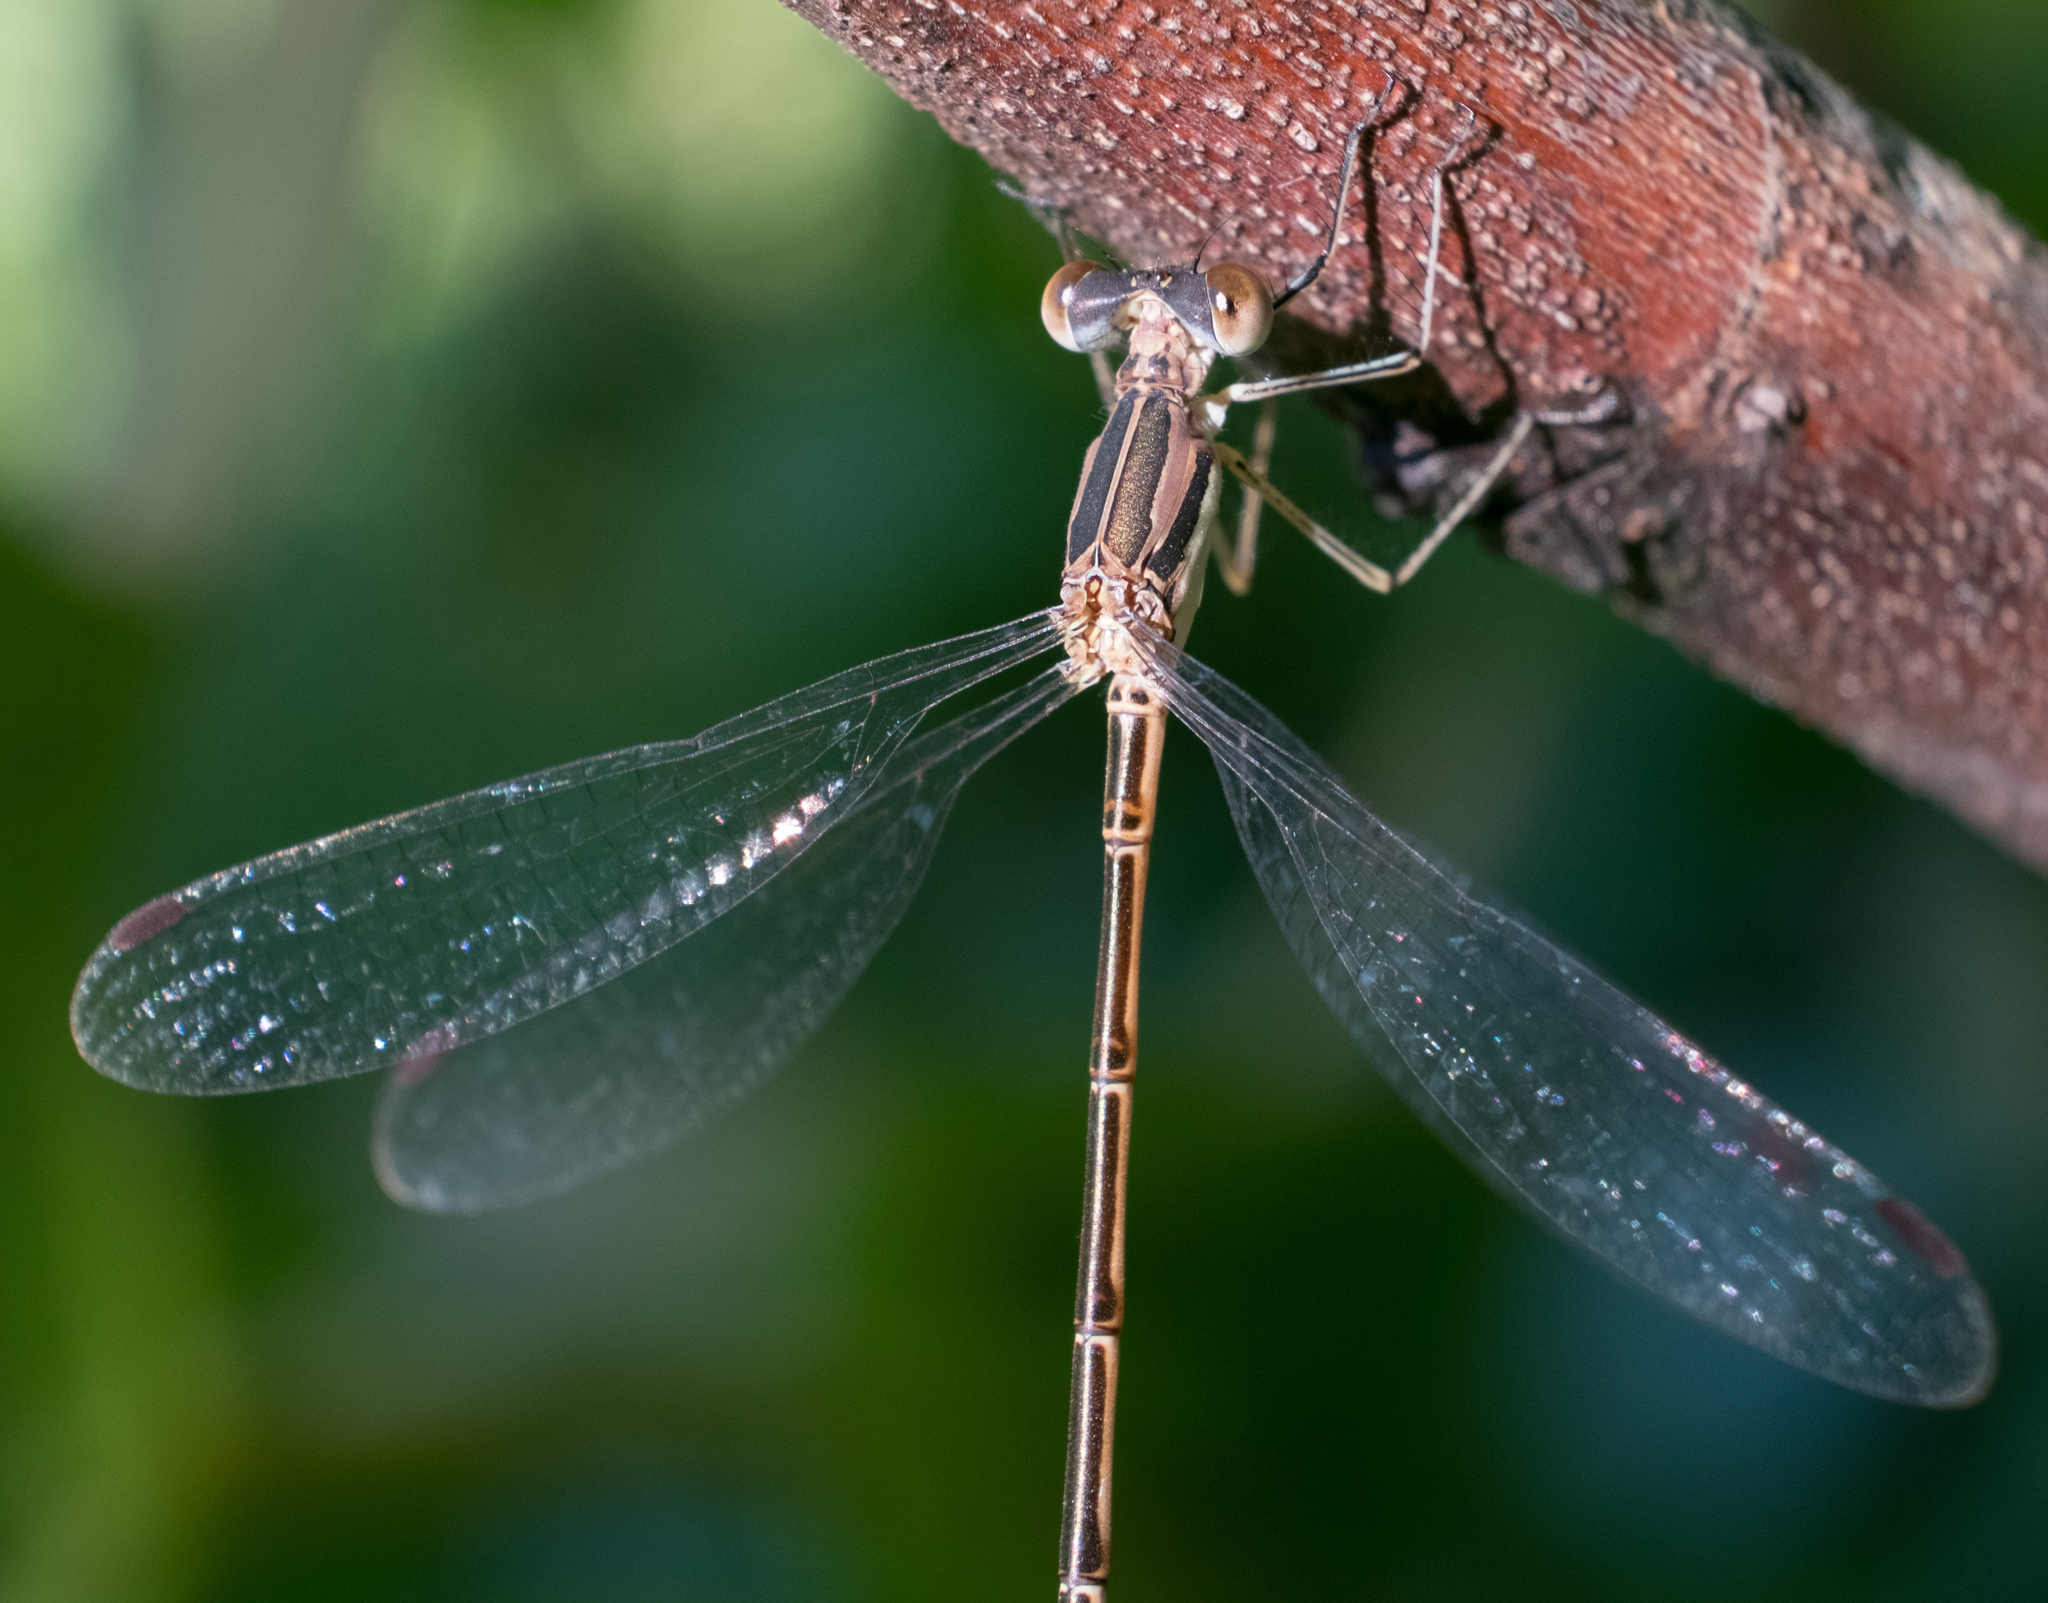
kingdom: Animalia
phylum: Arthropoda
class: Insecta
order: Odonata
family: Lestidae
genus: Lestes
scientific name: Lestes rectangularis
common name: Slender spreadwing
